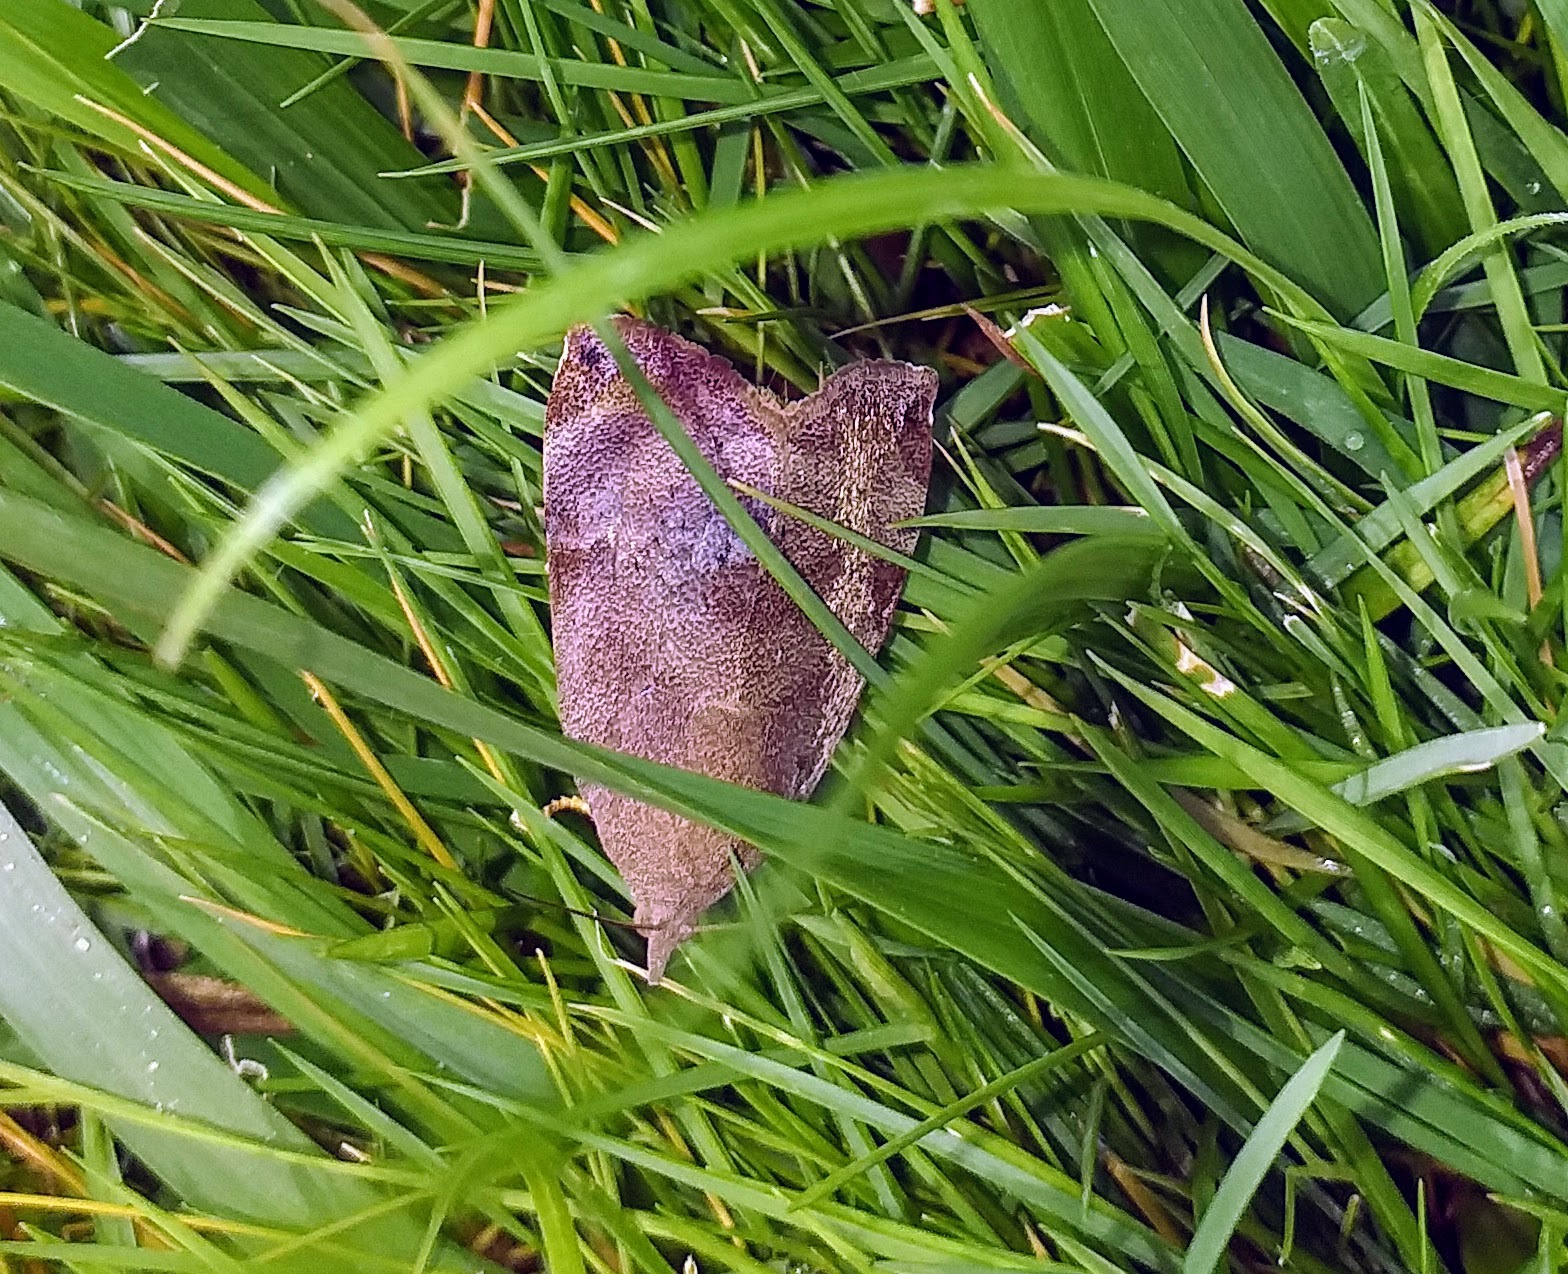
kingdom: Animalia
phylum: Arthropoda
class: Insecta
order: Lepidoptera
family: Hyblaeidae
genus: Hyblaea
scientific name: Hyblaea puera
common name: Teak defoliator moth
